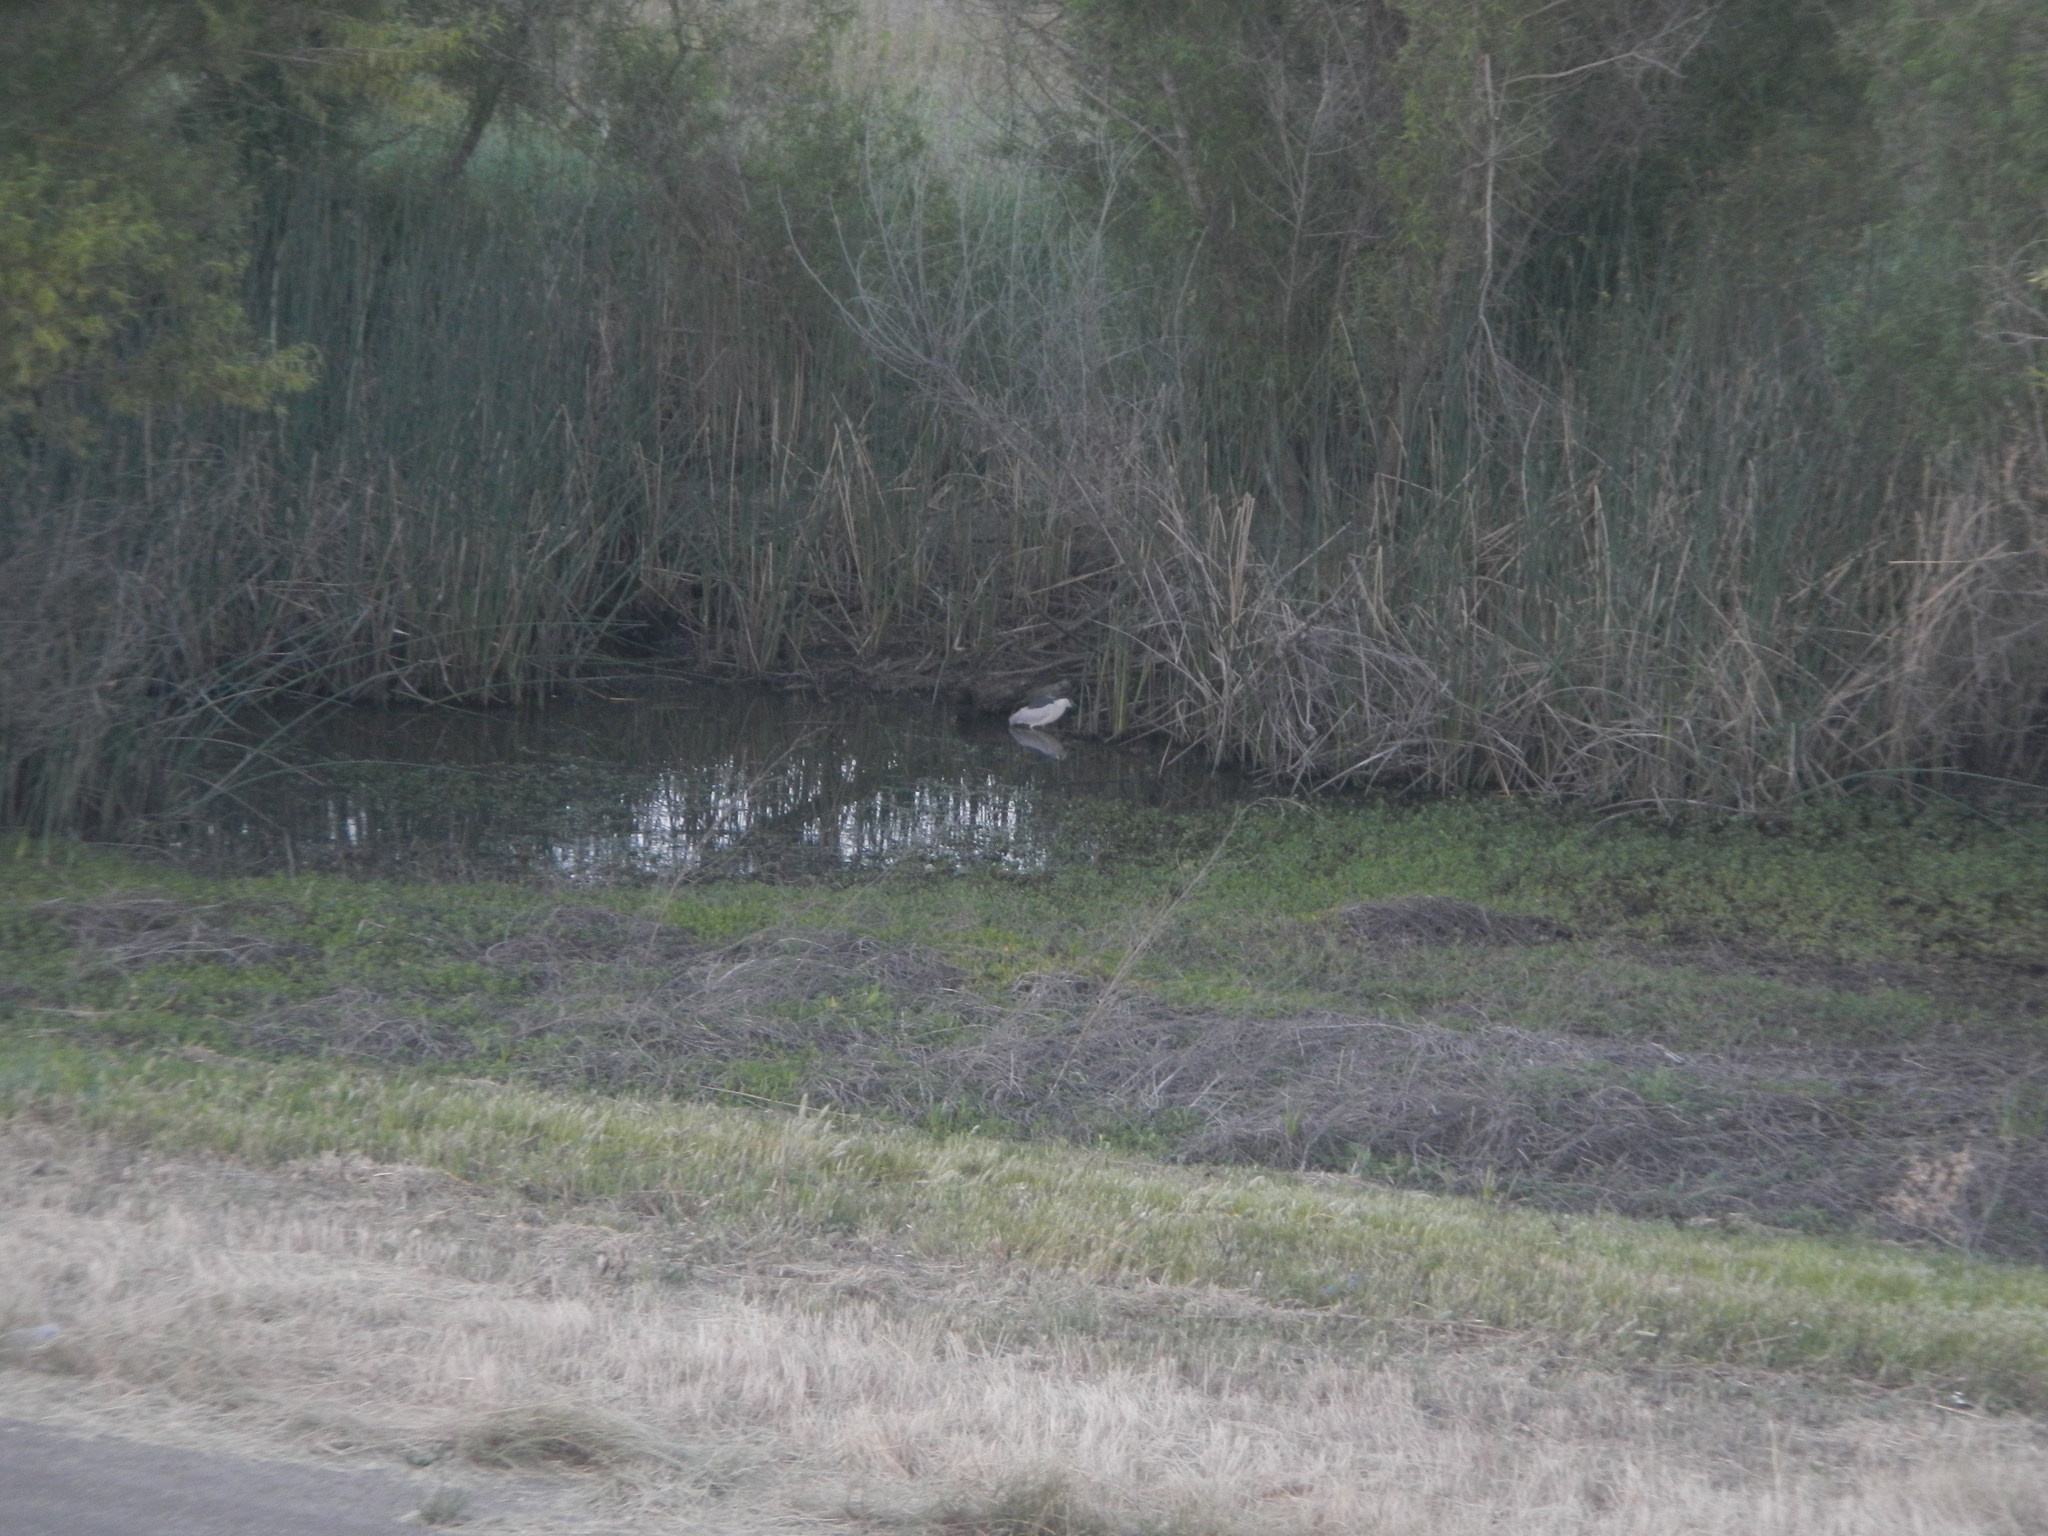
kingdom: Animalia
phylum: Chordata
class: Aves
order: Pelecaniformes
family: Ardeidae
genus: Nycticorax
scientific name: Nycticorax nycticorax
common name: Black-crowned night heron
